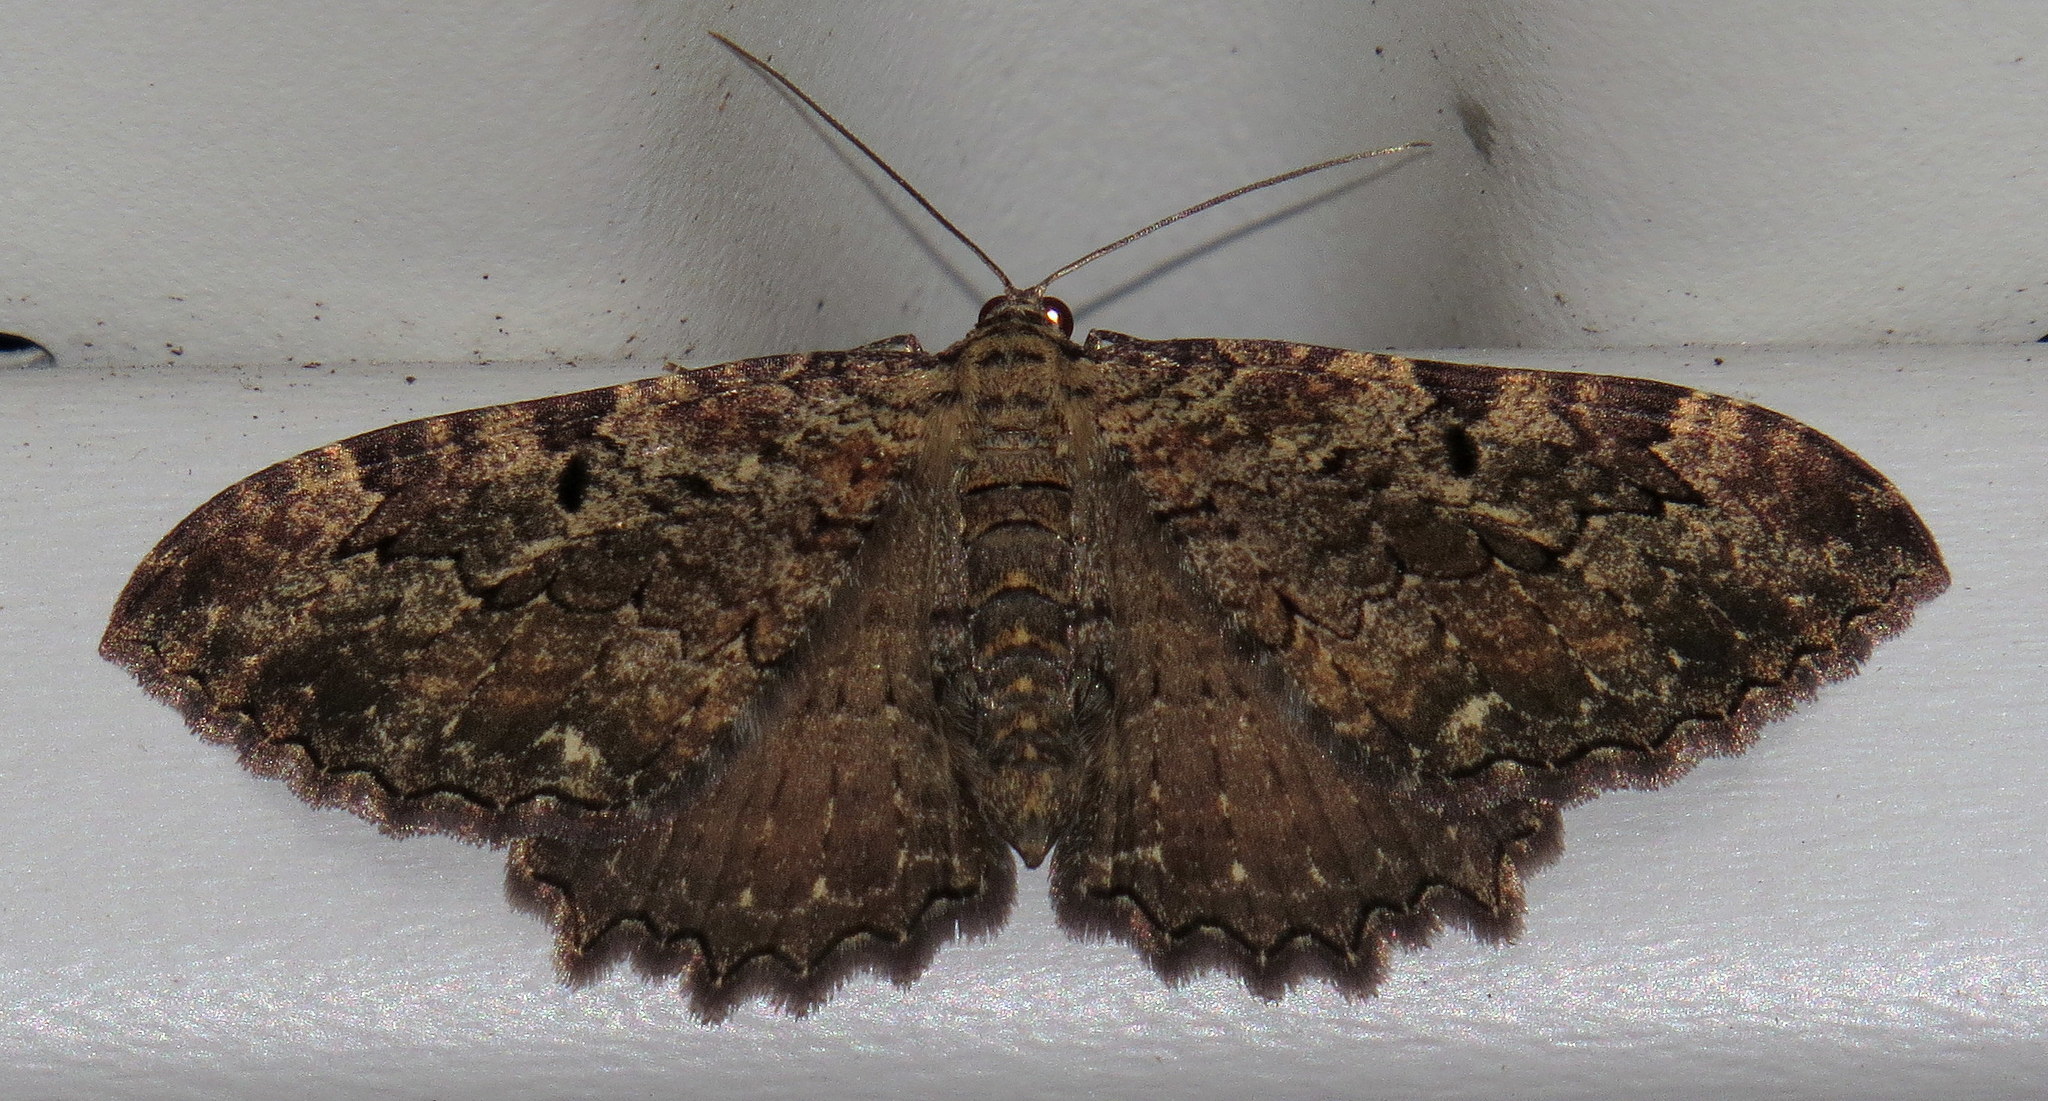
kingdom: Animalia
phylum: Arthropoda
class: Insecta
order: Lepidoptera
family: Geometridae
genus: Rheumaptera
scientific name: Rheumaptera
